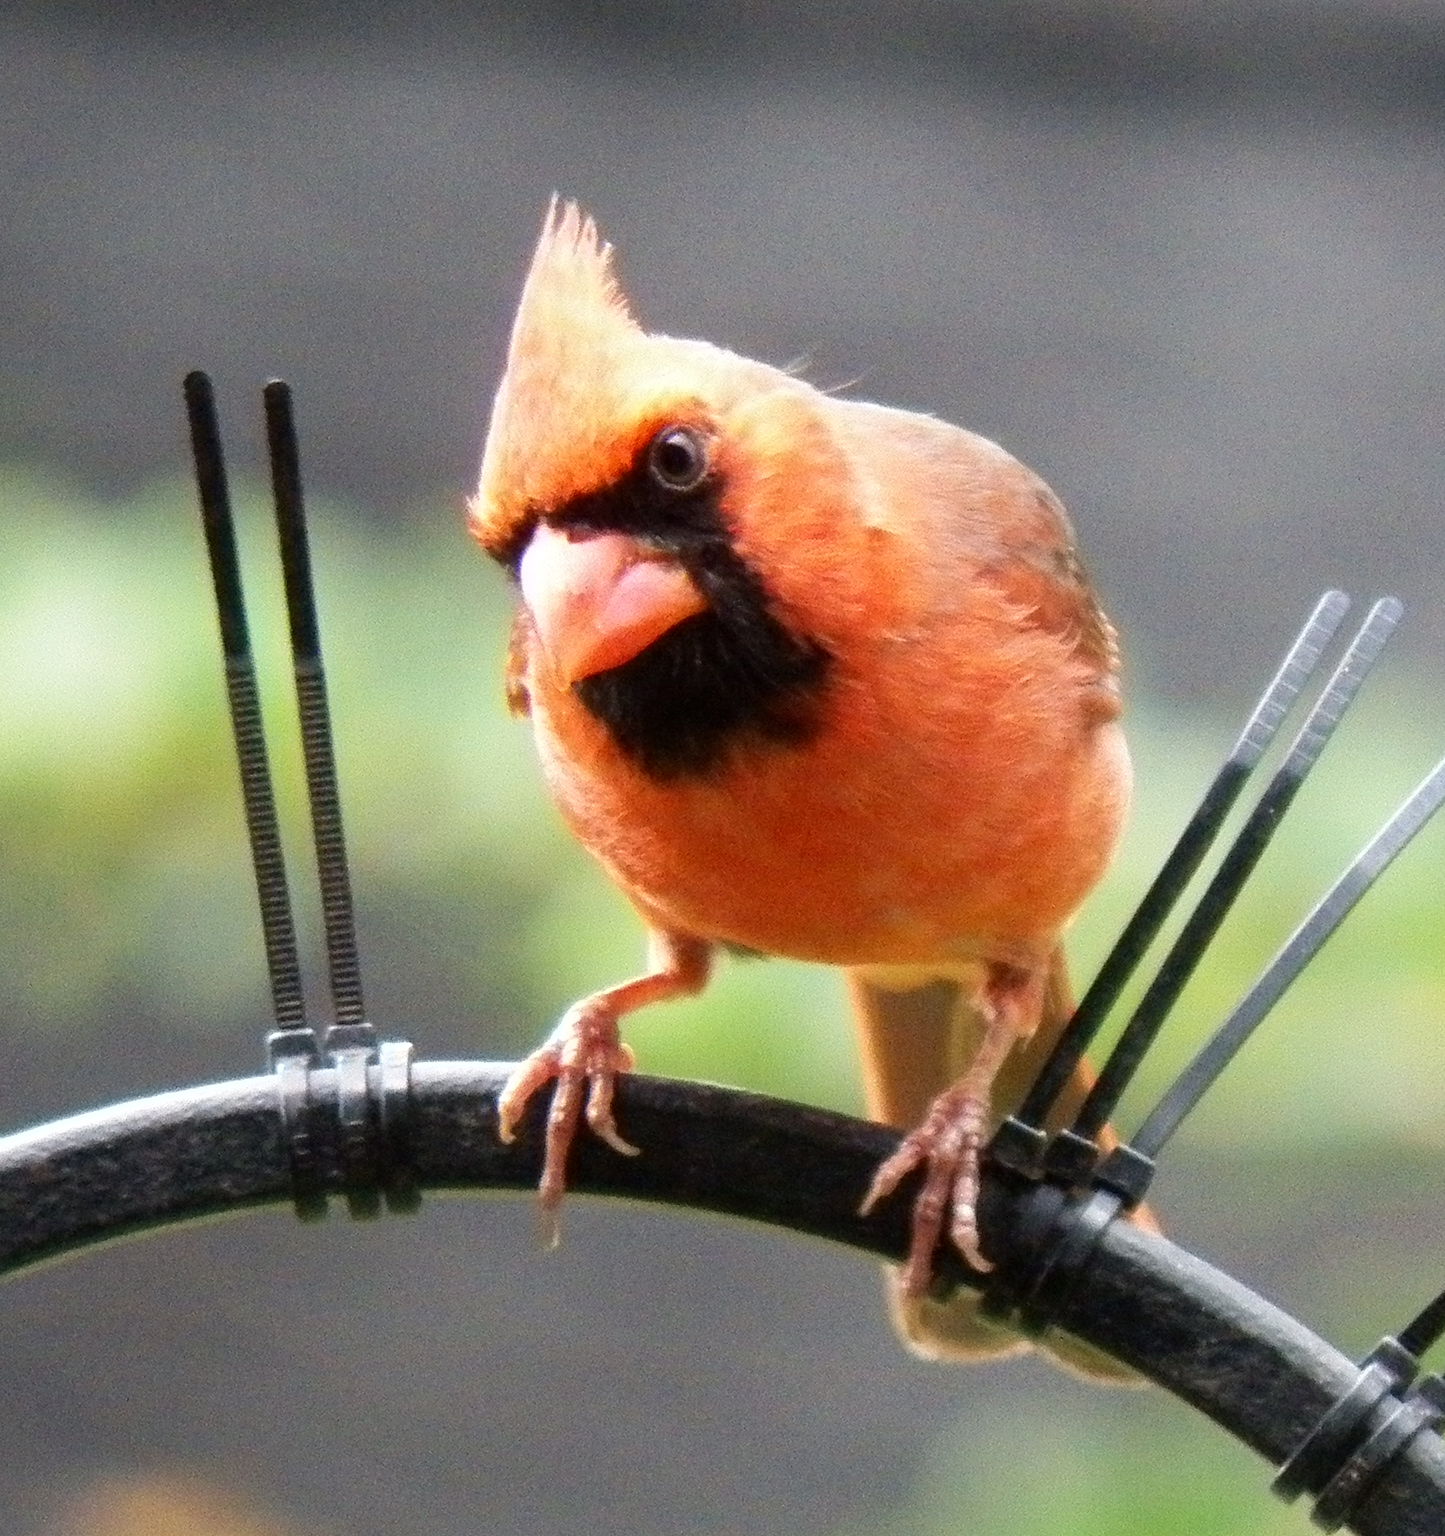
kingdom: Animalia
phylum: Chordata
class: Aves
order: Passeriformes
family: Cardinalidae
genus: Cardinalis
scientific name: Cardinalis cardinalis
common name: Northern cardinal
